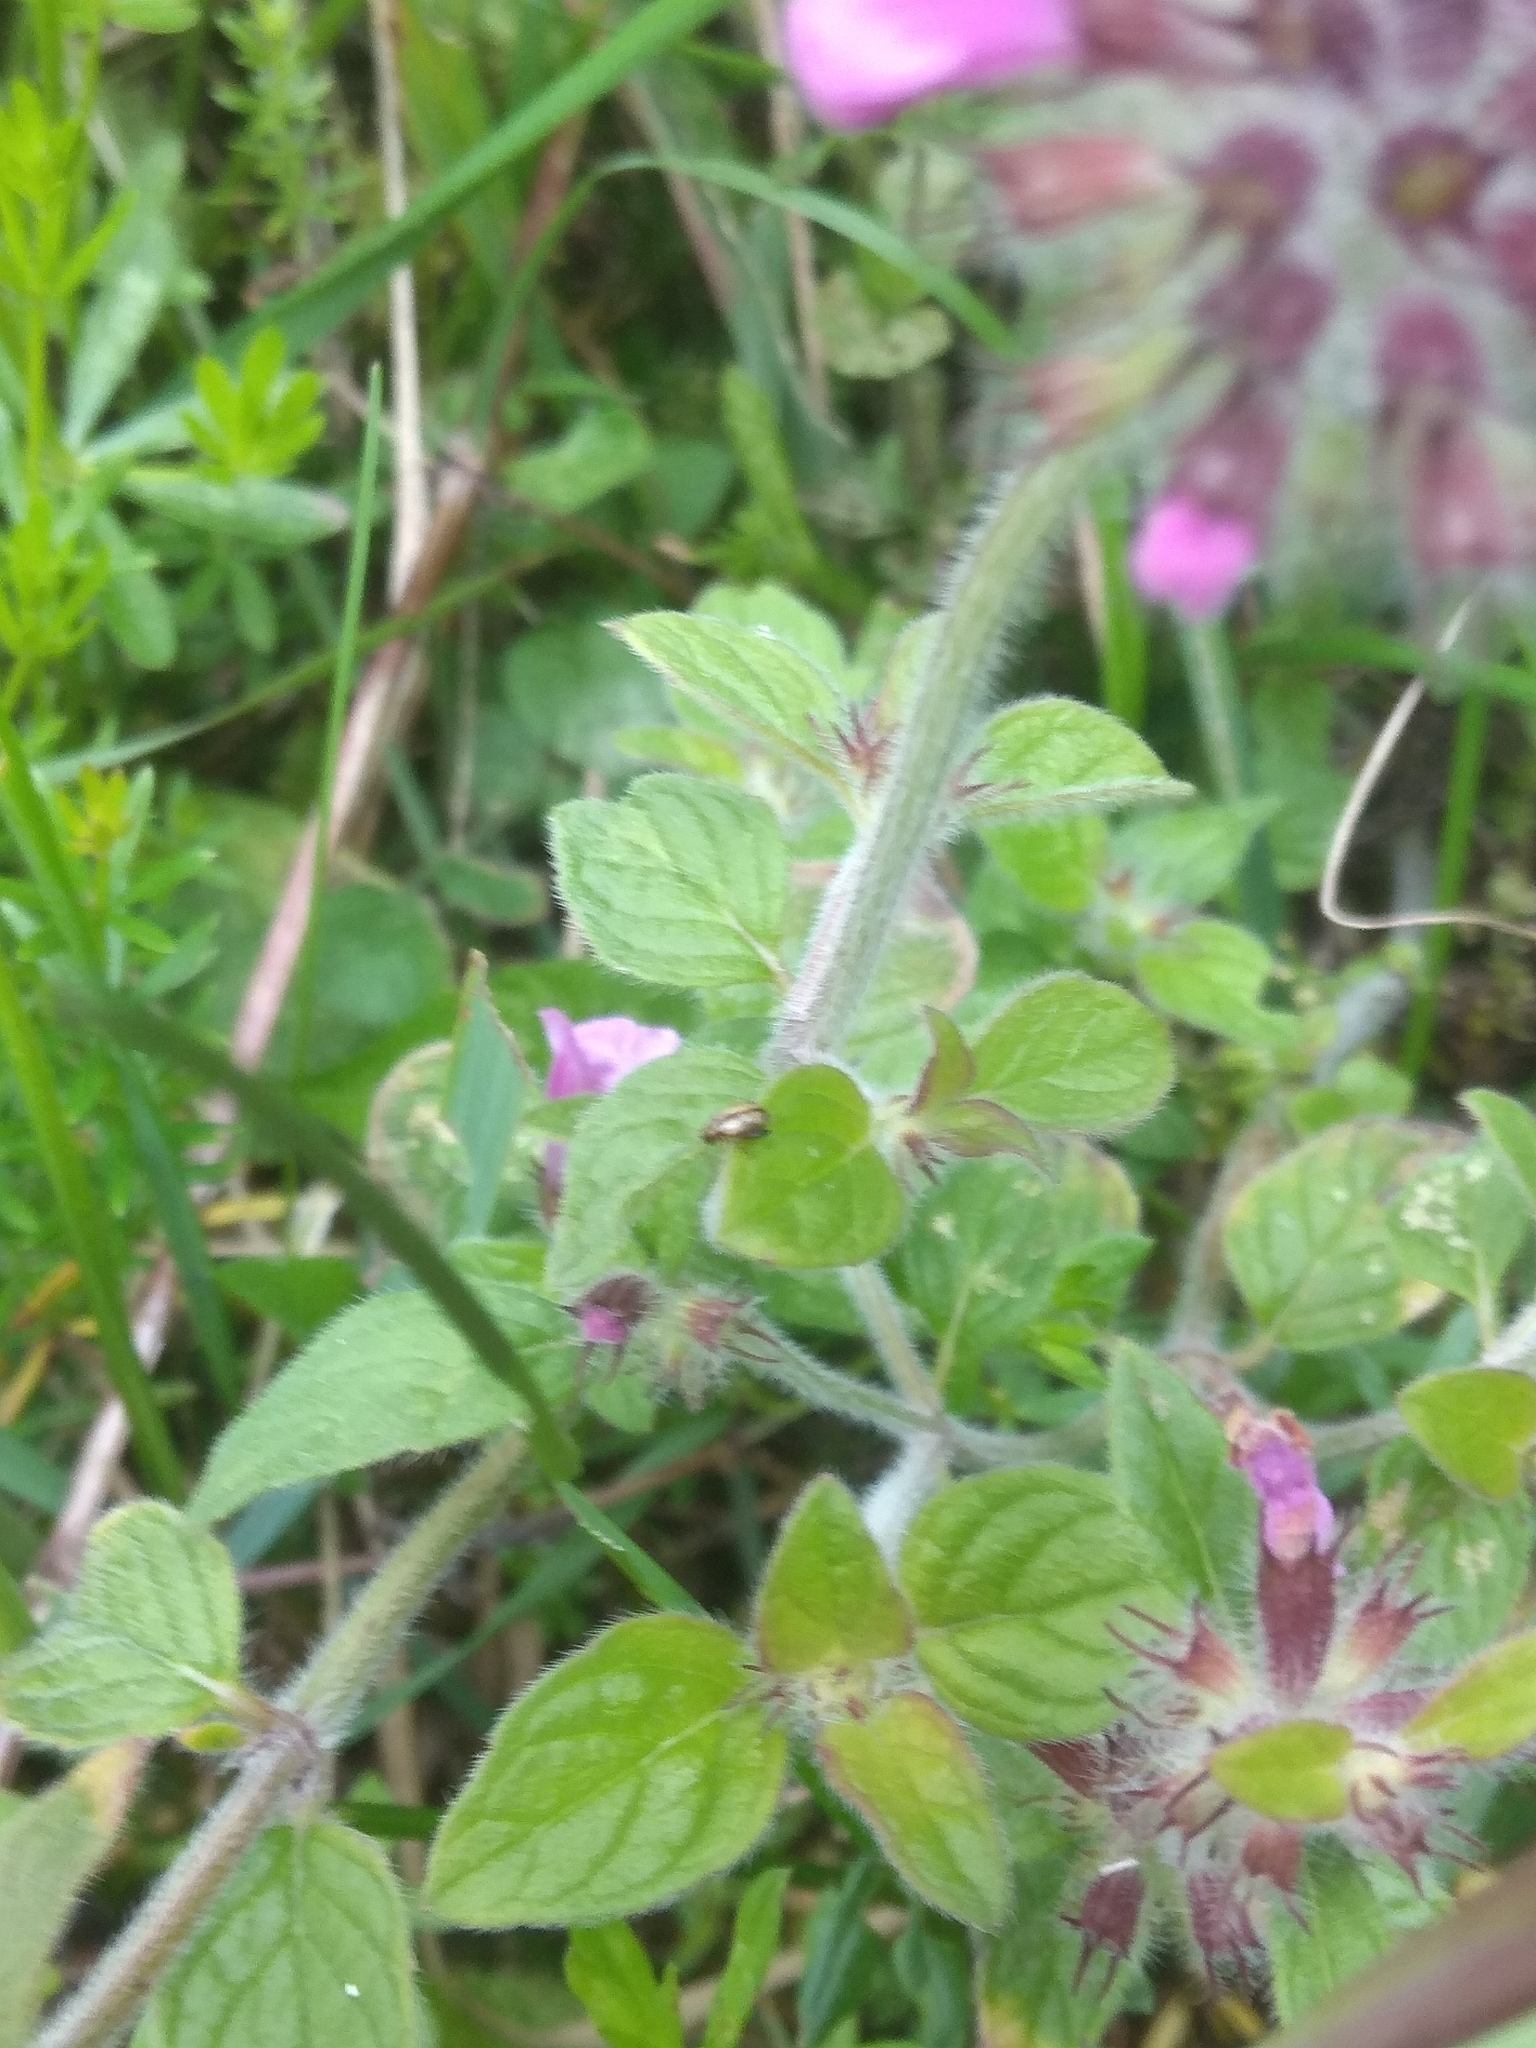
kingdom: Plantae
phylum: Tracheophyta
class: Magnoliopsida
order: Lamiales
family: Lamiaceae
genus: Clinopodium
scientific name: Clinopodium vulgare
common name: Wild basil
